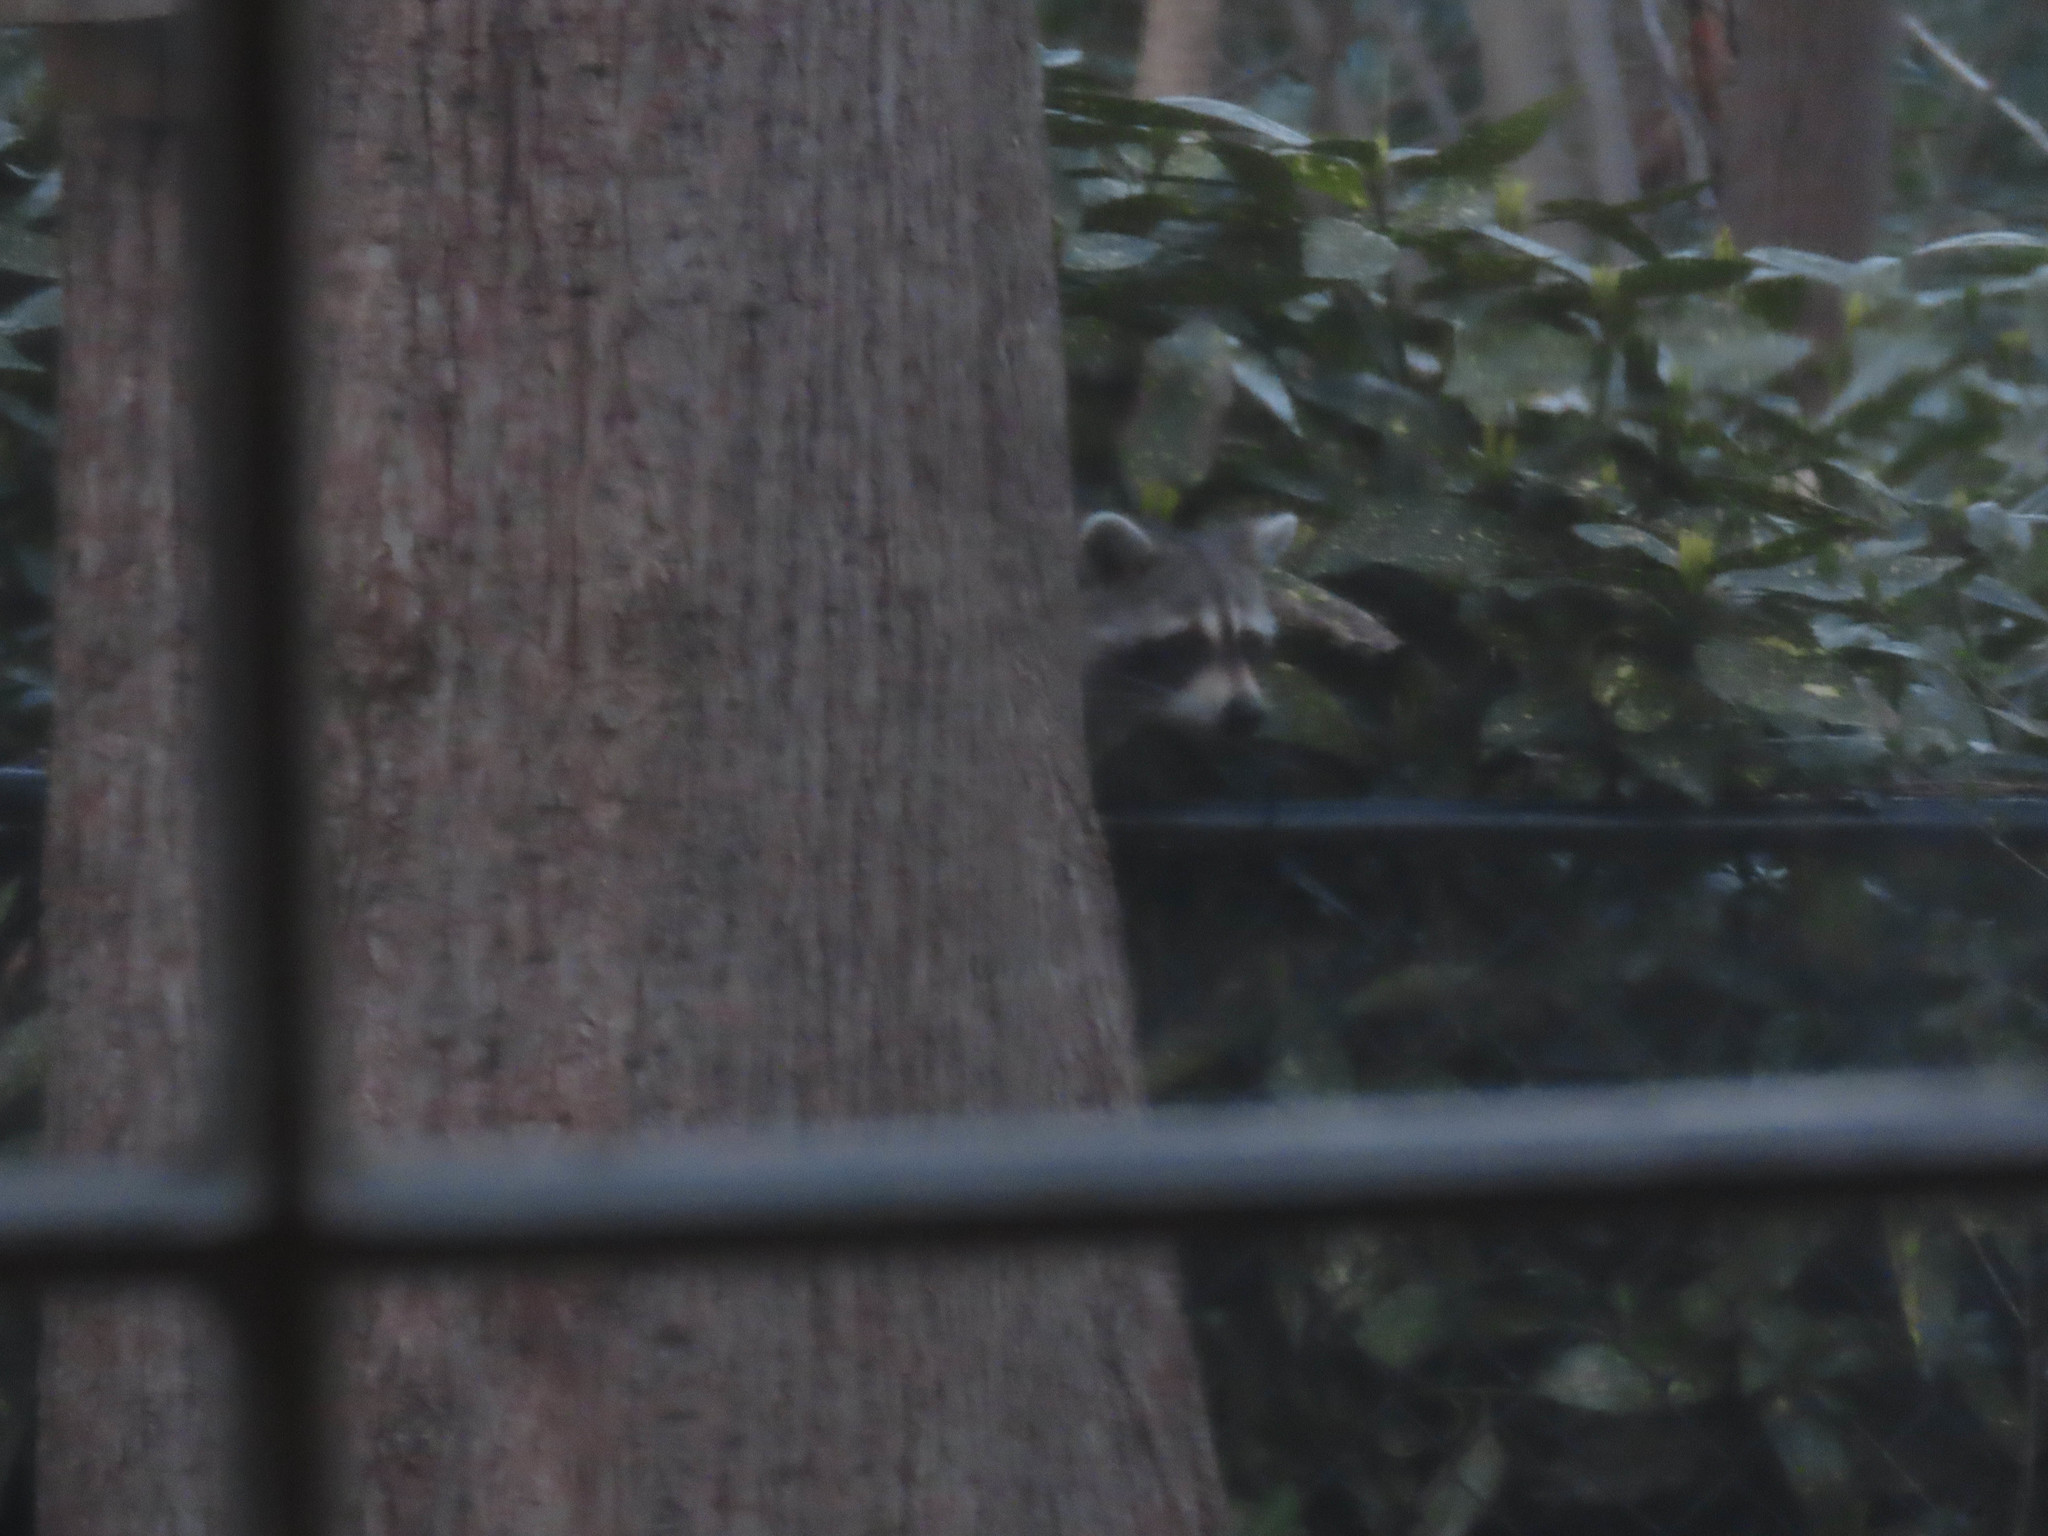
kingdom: Animalia
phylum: Chordata
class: Mammalia
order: Carnivora
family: Procyonidae
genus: Procyon
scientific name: Procyon lotor
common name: Raccoon
